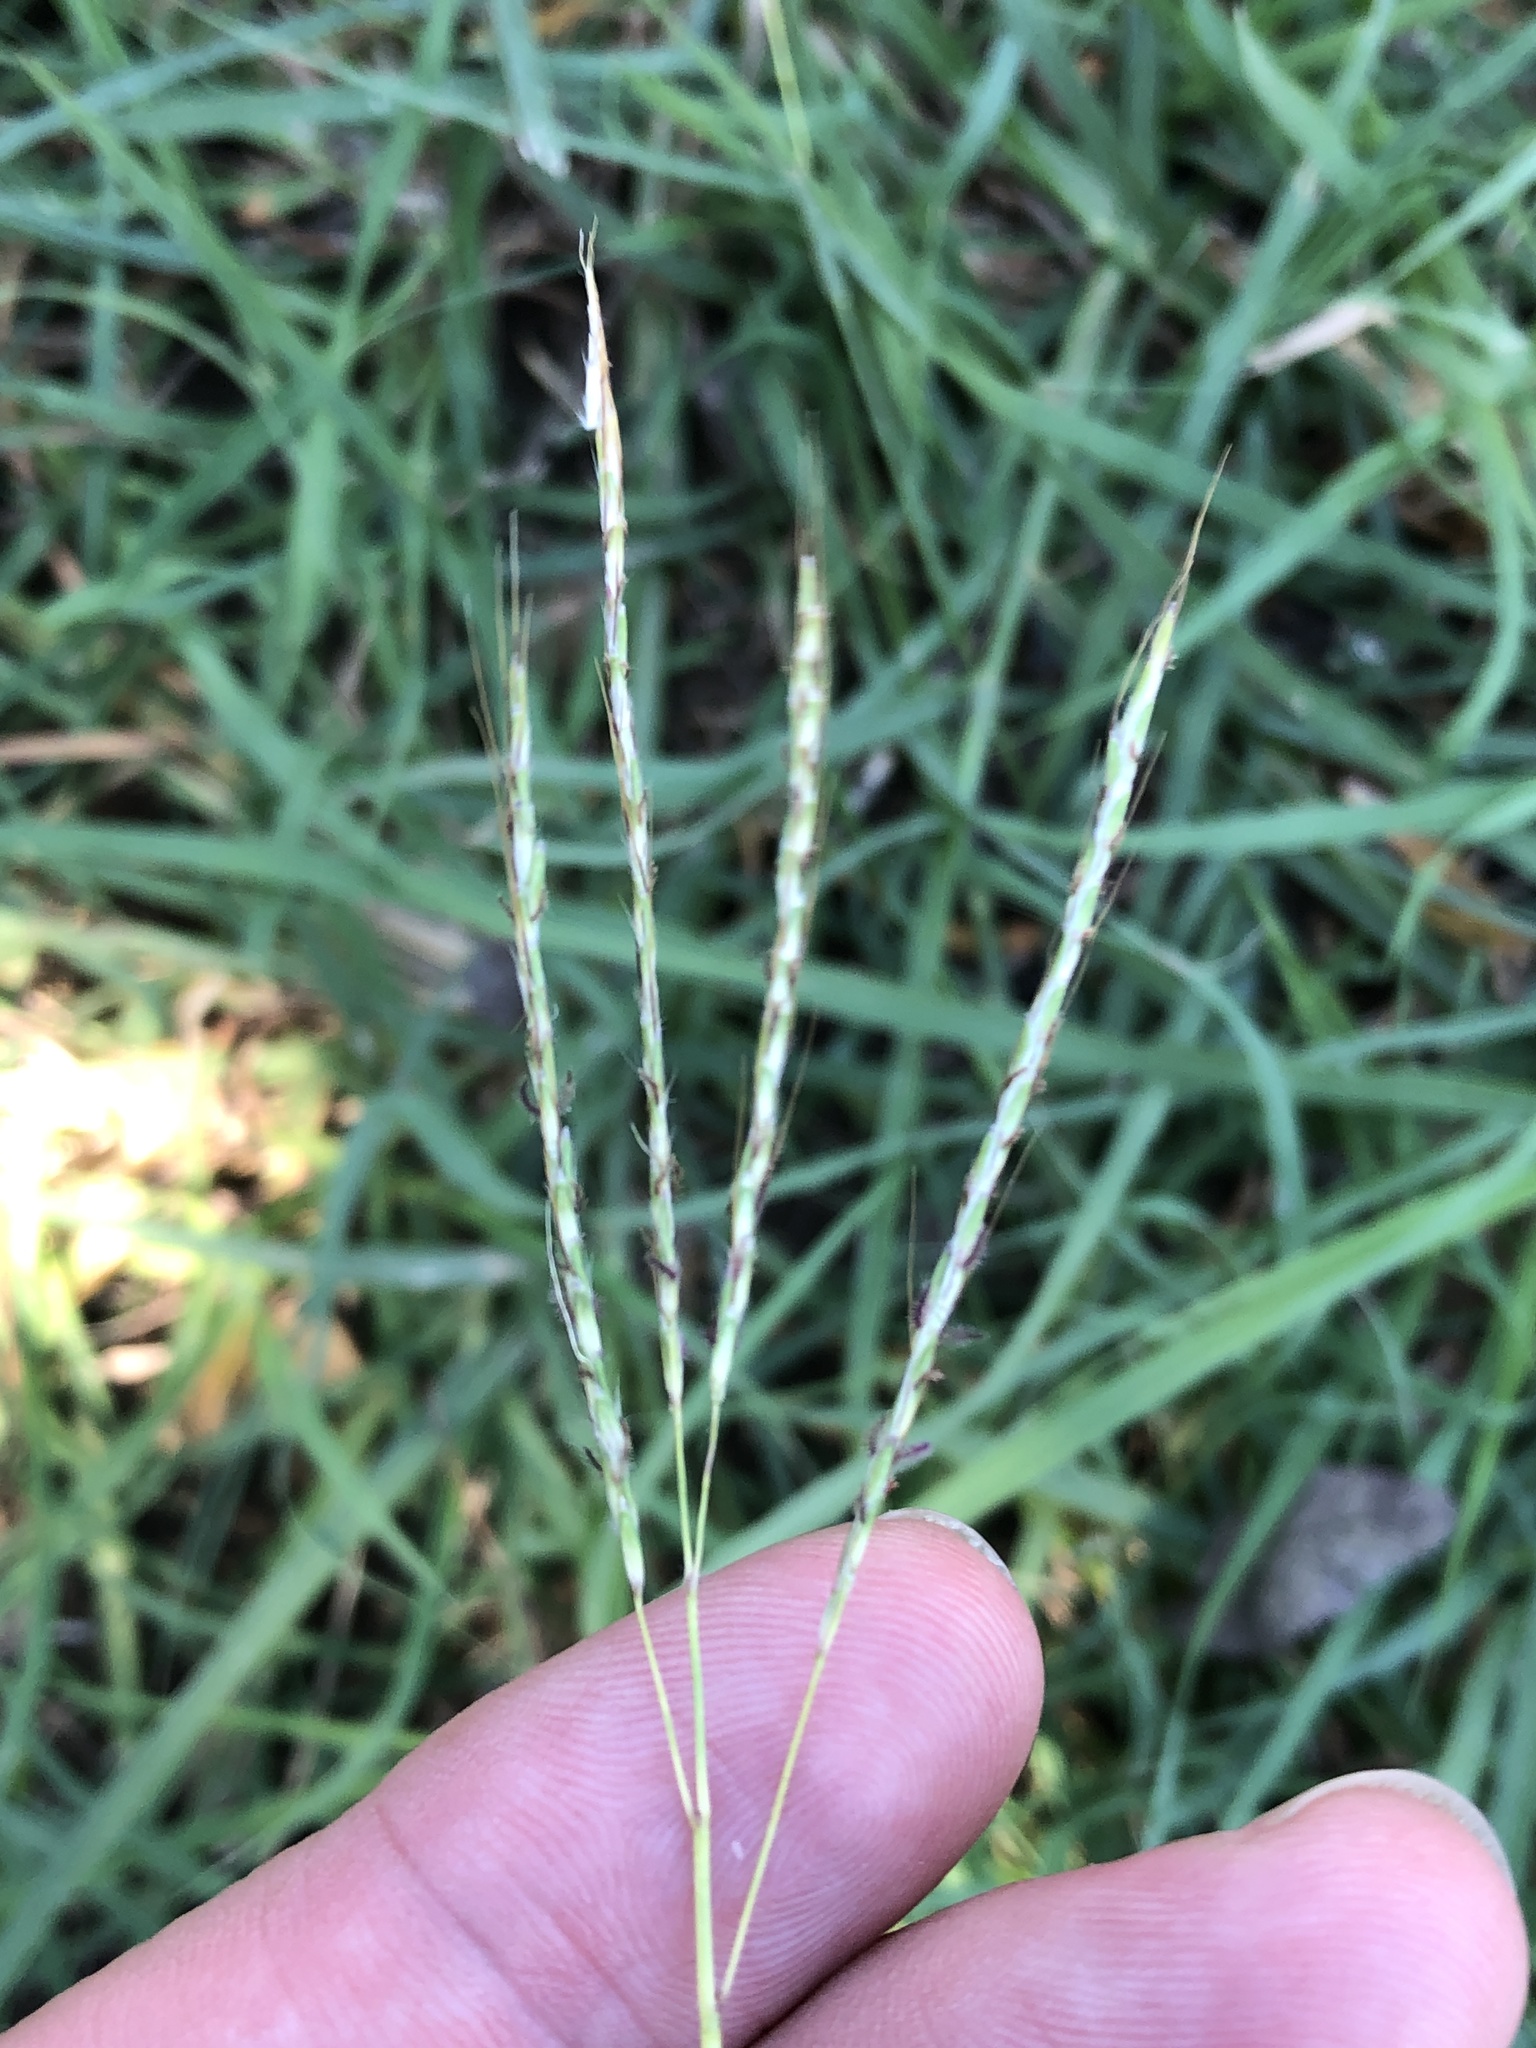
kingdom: Plantae
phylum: Tracheophyta
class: Liliopsida
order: Poales
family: Poaceae
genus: Bothriochloa
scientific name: Bothriochloa ischaemum
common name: Yellow bluestem
